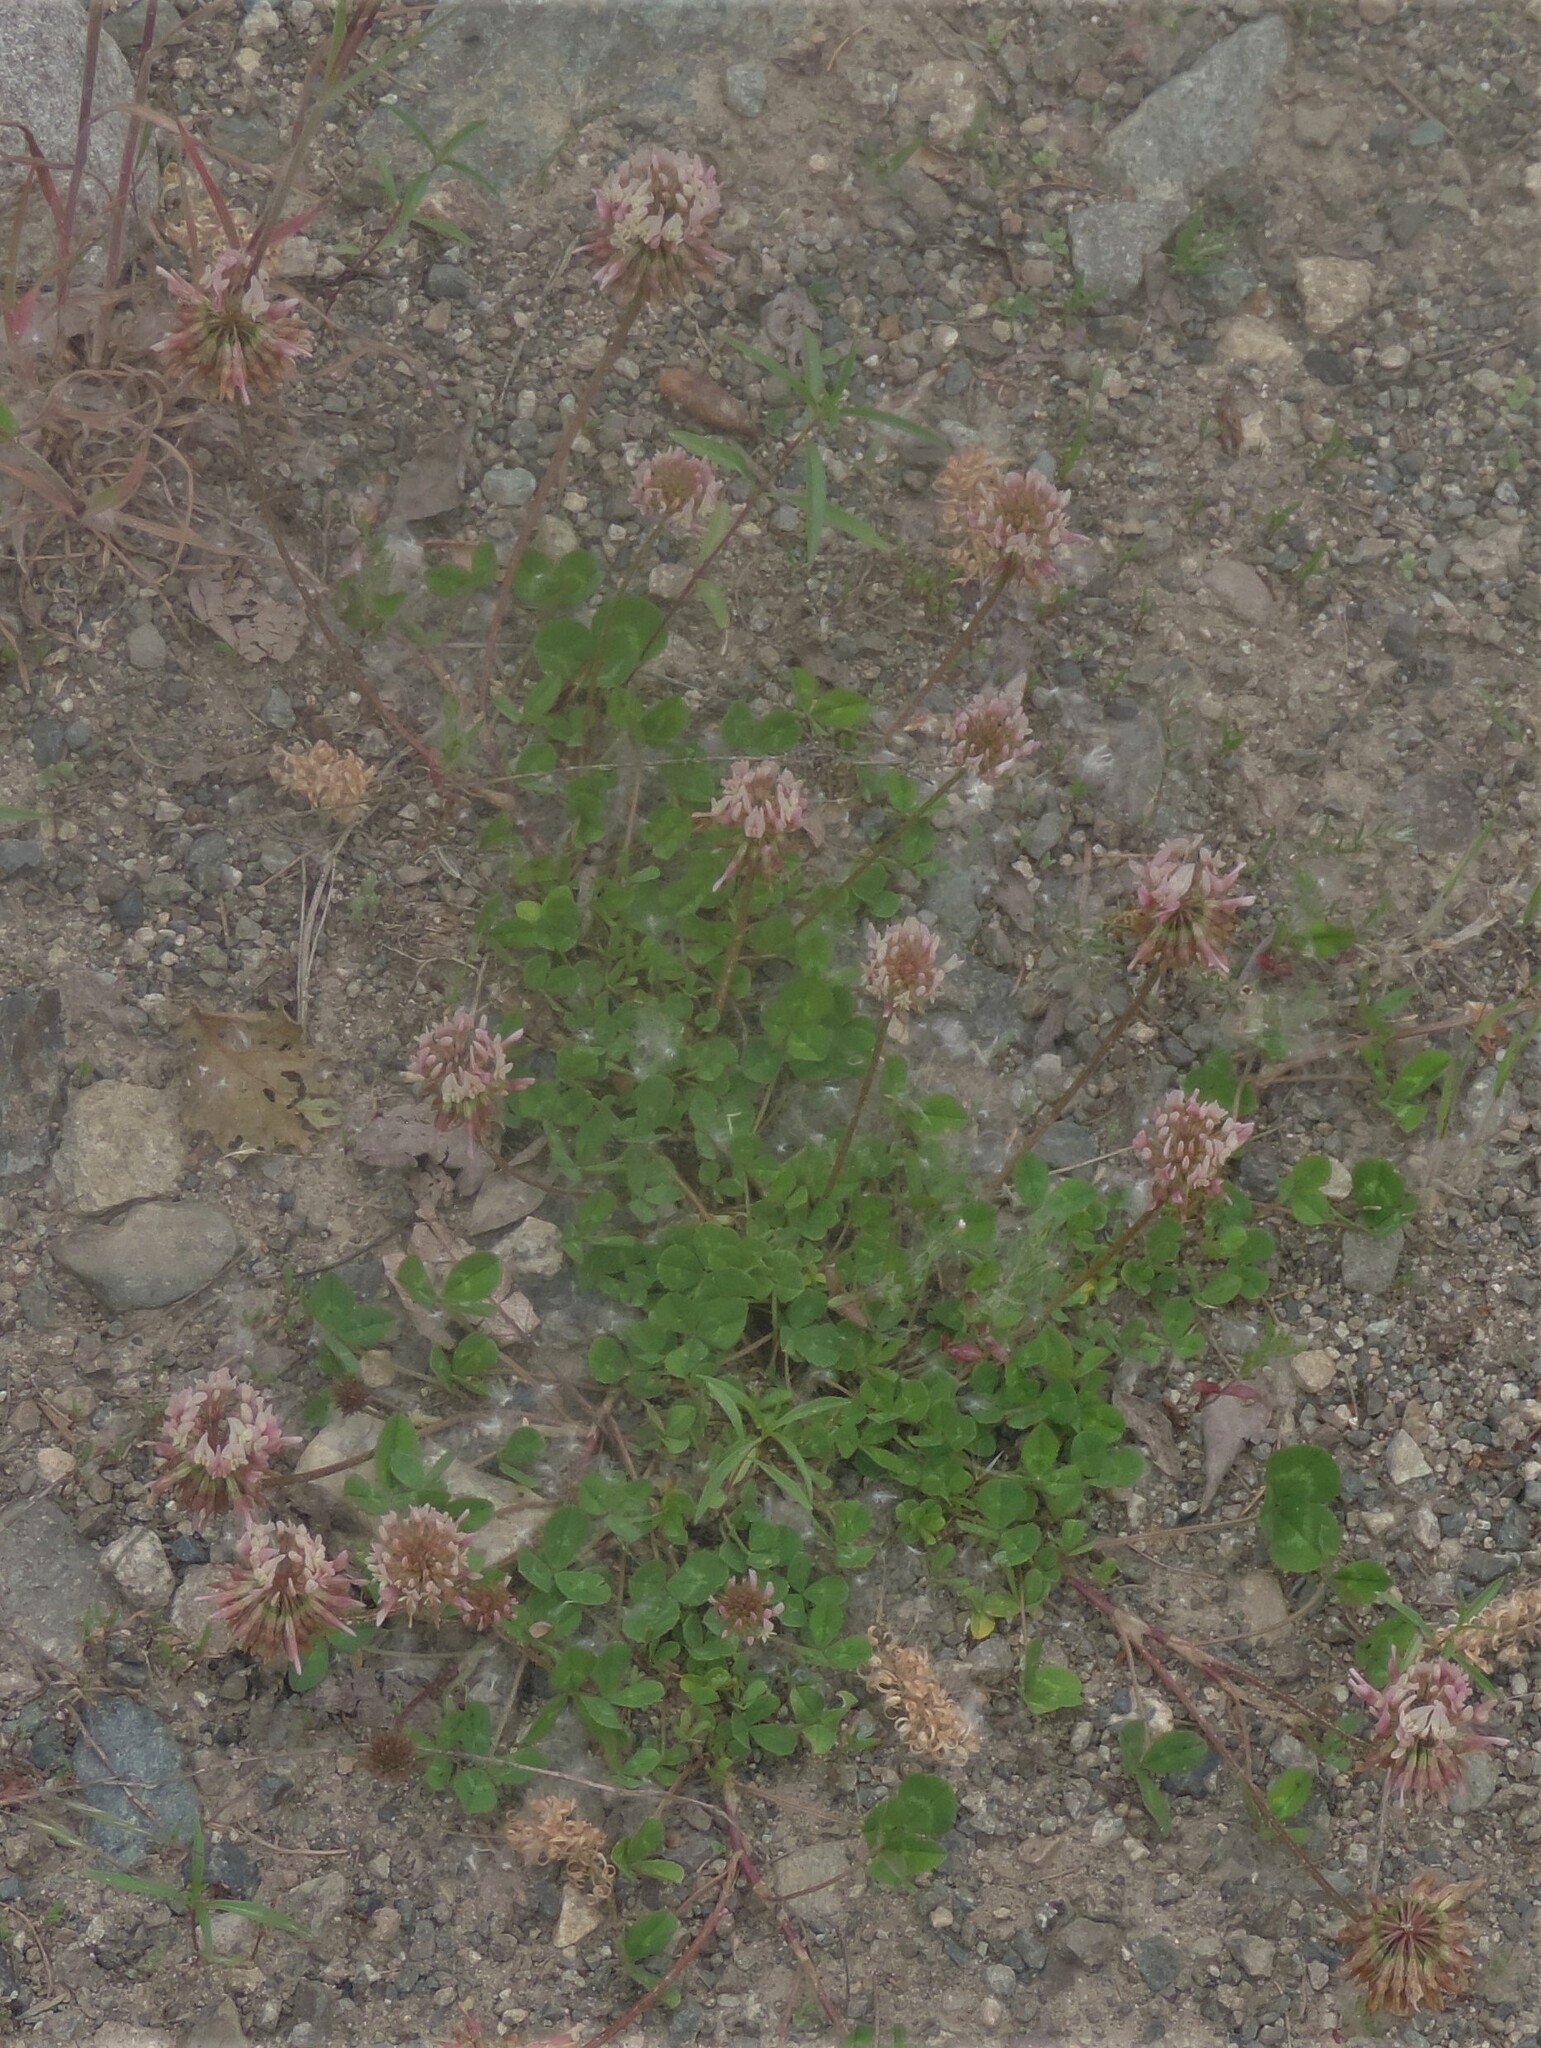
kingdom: Plantae
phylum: Tracheophyta
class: Magnoliopsida
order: Fabales
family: Fabaceae
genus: Trifolium
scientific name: Trifolium repens
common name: White clover
